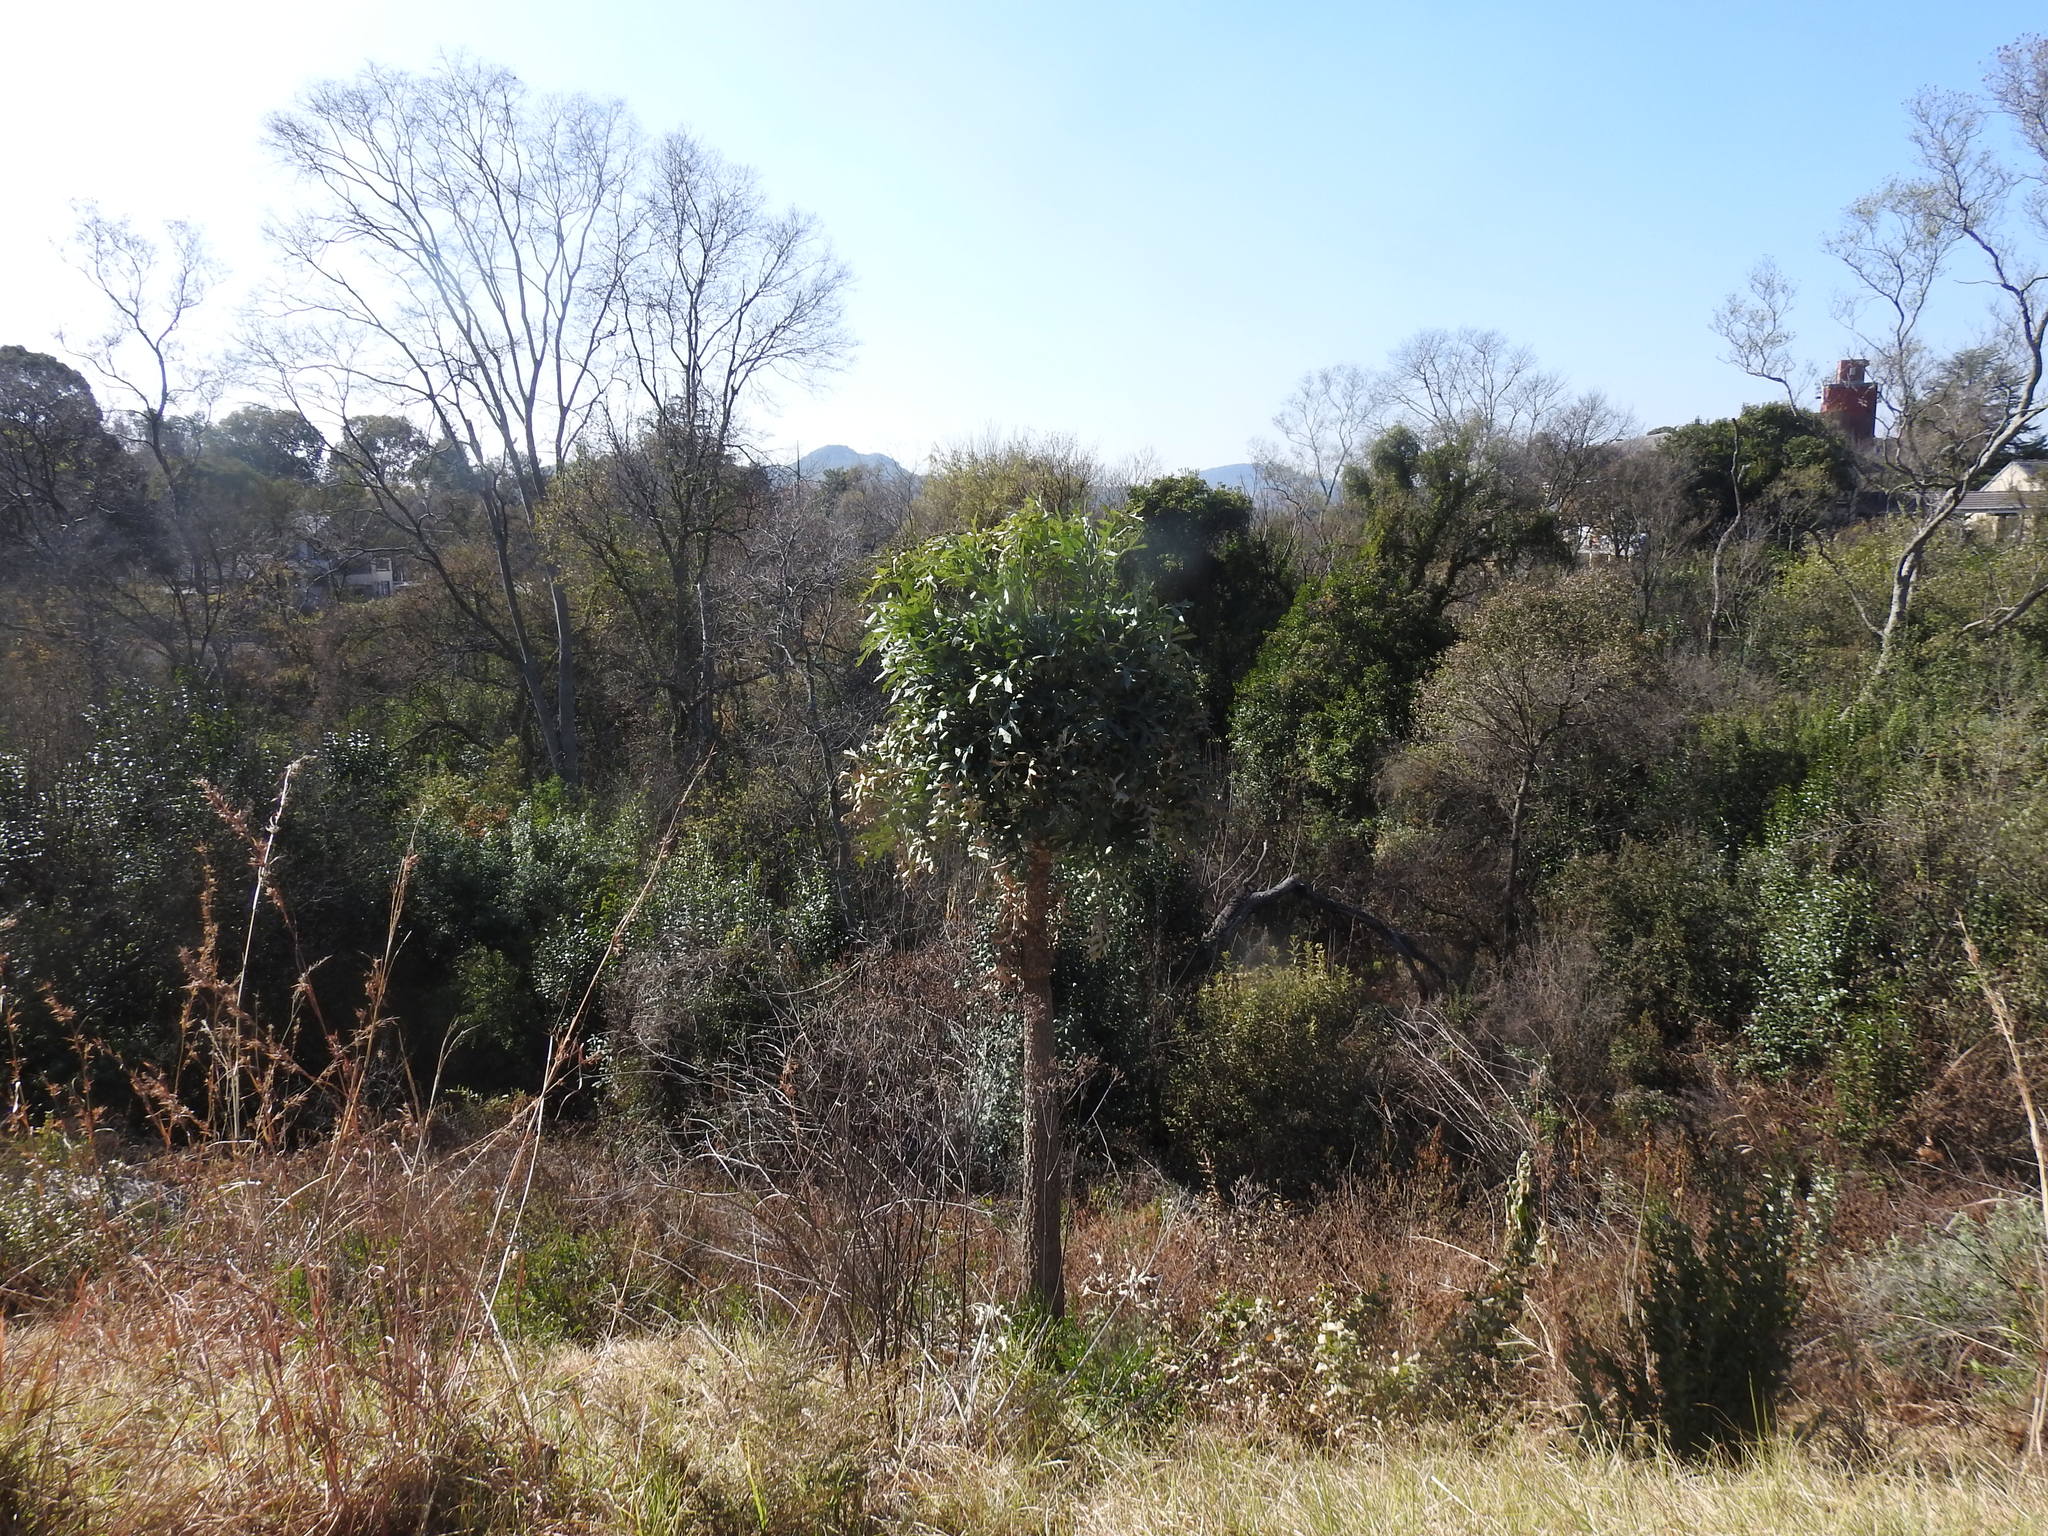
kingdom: Plantae
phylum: Tracheophyta
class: Magnoliopsida
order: Apiales
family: Araliaceae
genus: Cussonia
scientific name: Cussonia paniculata
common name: Cabbagetree
